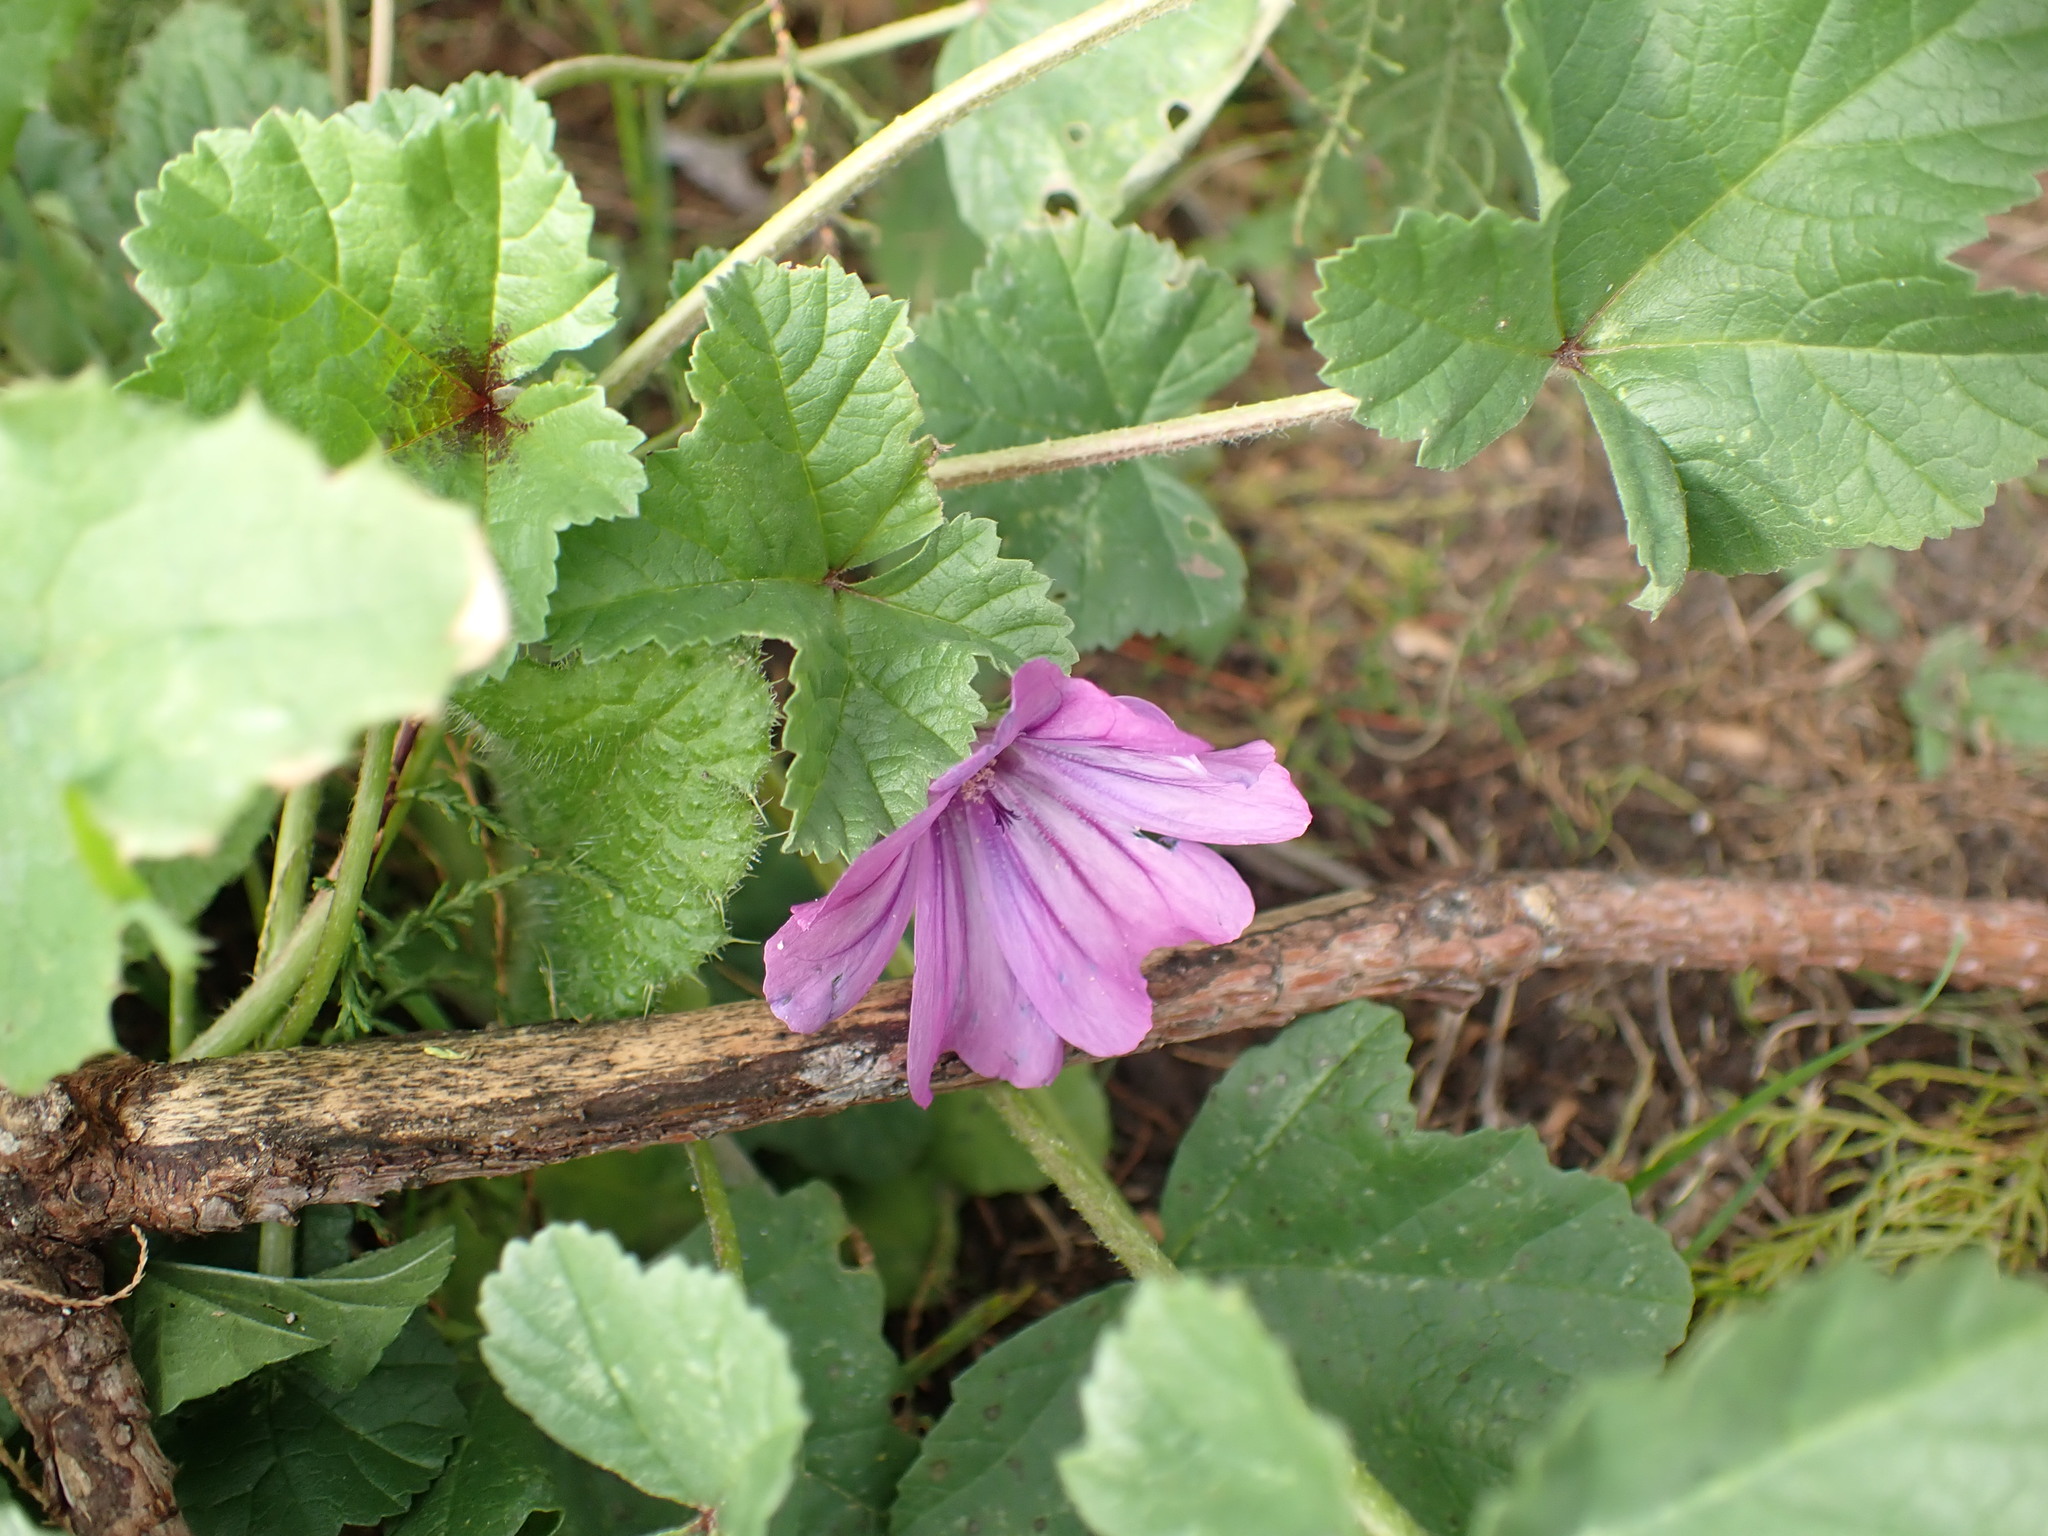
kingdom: Plantae
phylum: Tracheophyta
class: Magnoliopsida
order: Malvales
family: Malvaceae
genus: Malva
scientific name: Malva sylvestris
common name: Common mallow
